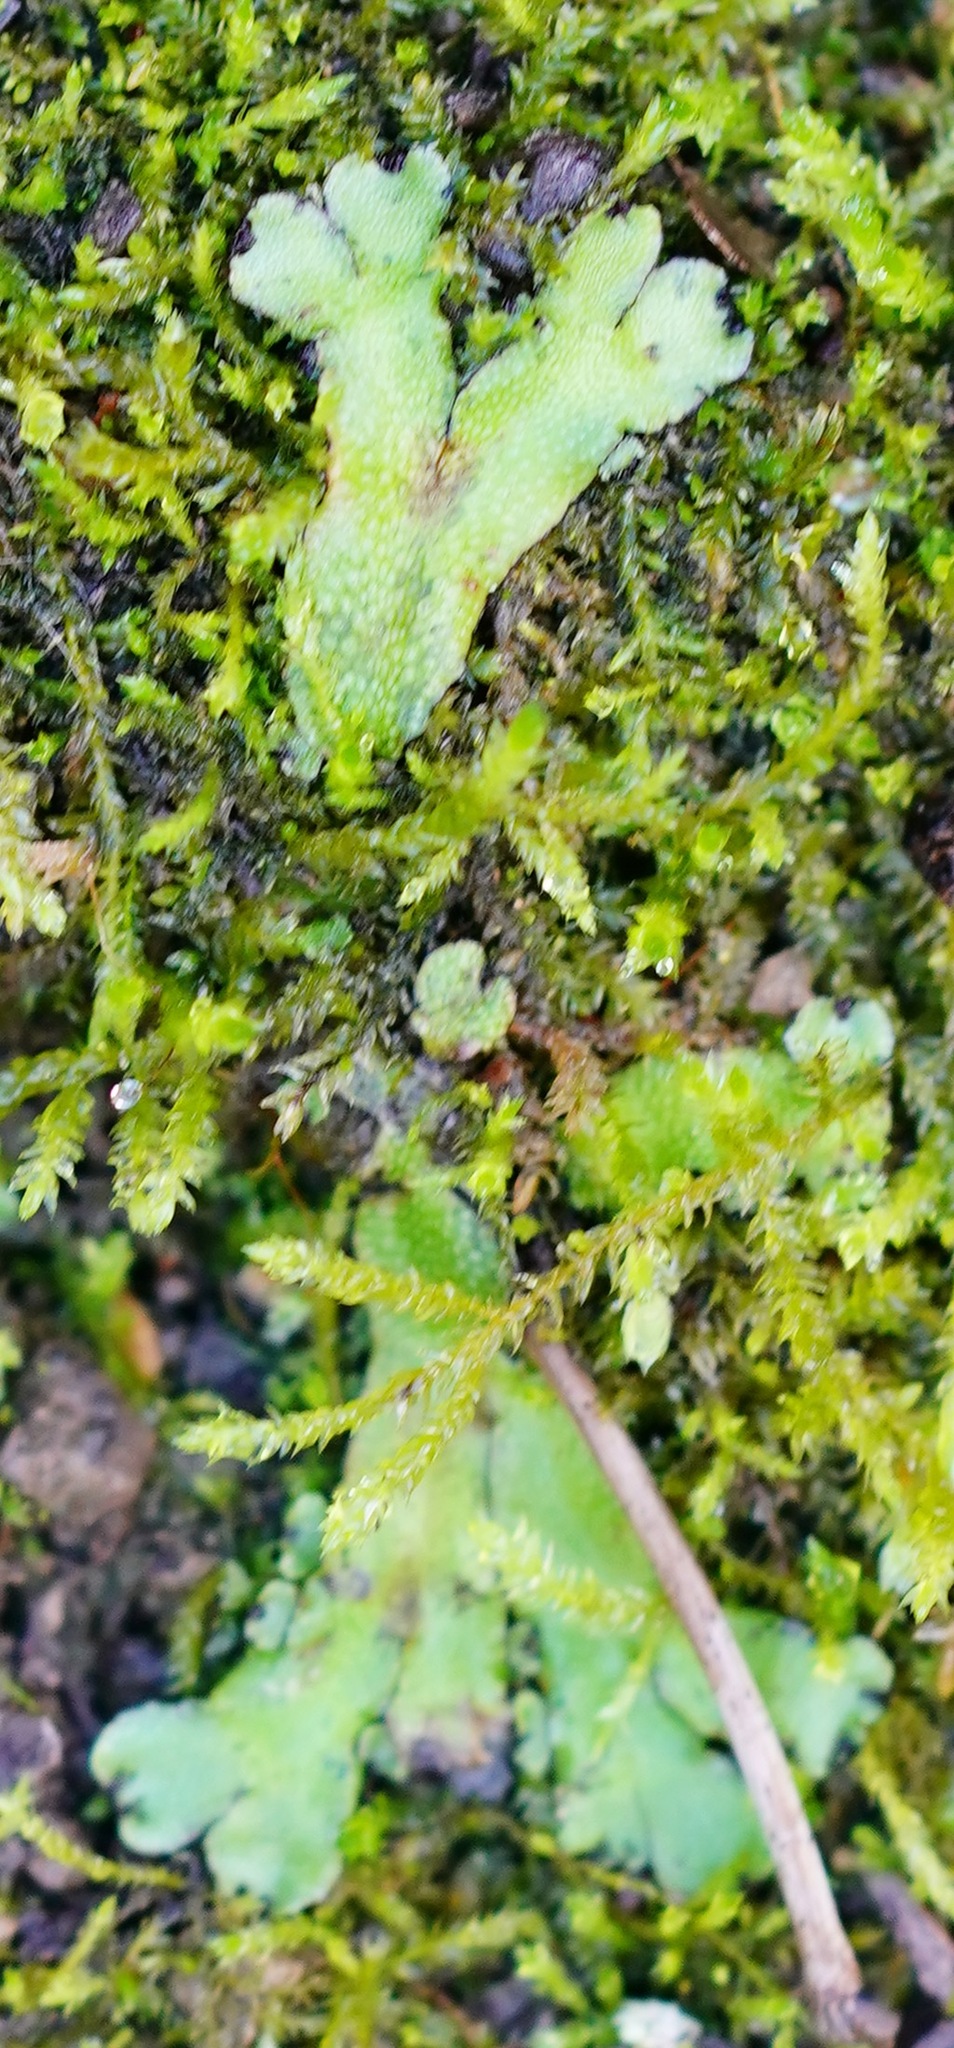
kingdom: Plantae
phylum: Marchantiophyta
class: Marchantiopsida
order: Marchantiales
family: Targioniaceae
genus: Targionia
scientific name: Targionia hypophylla
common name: Orobus-seed liverwort
